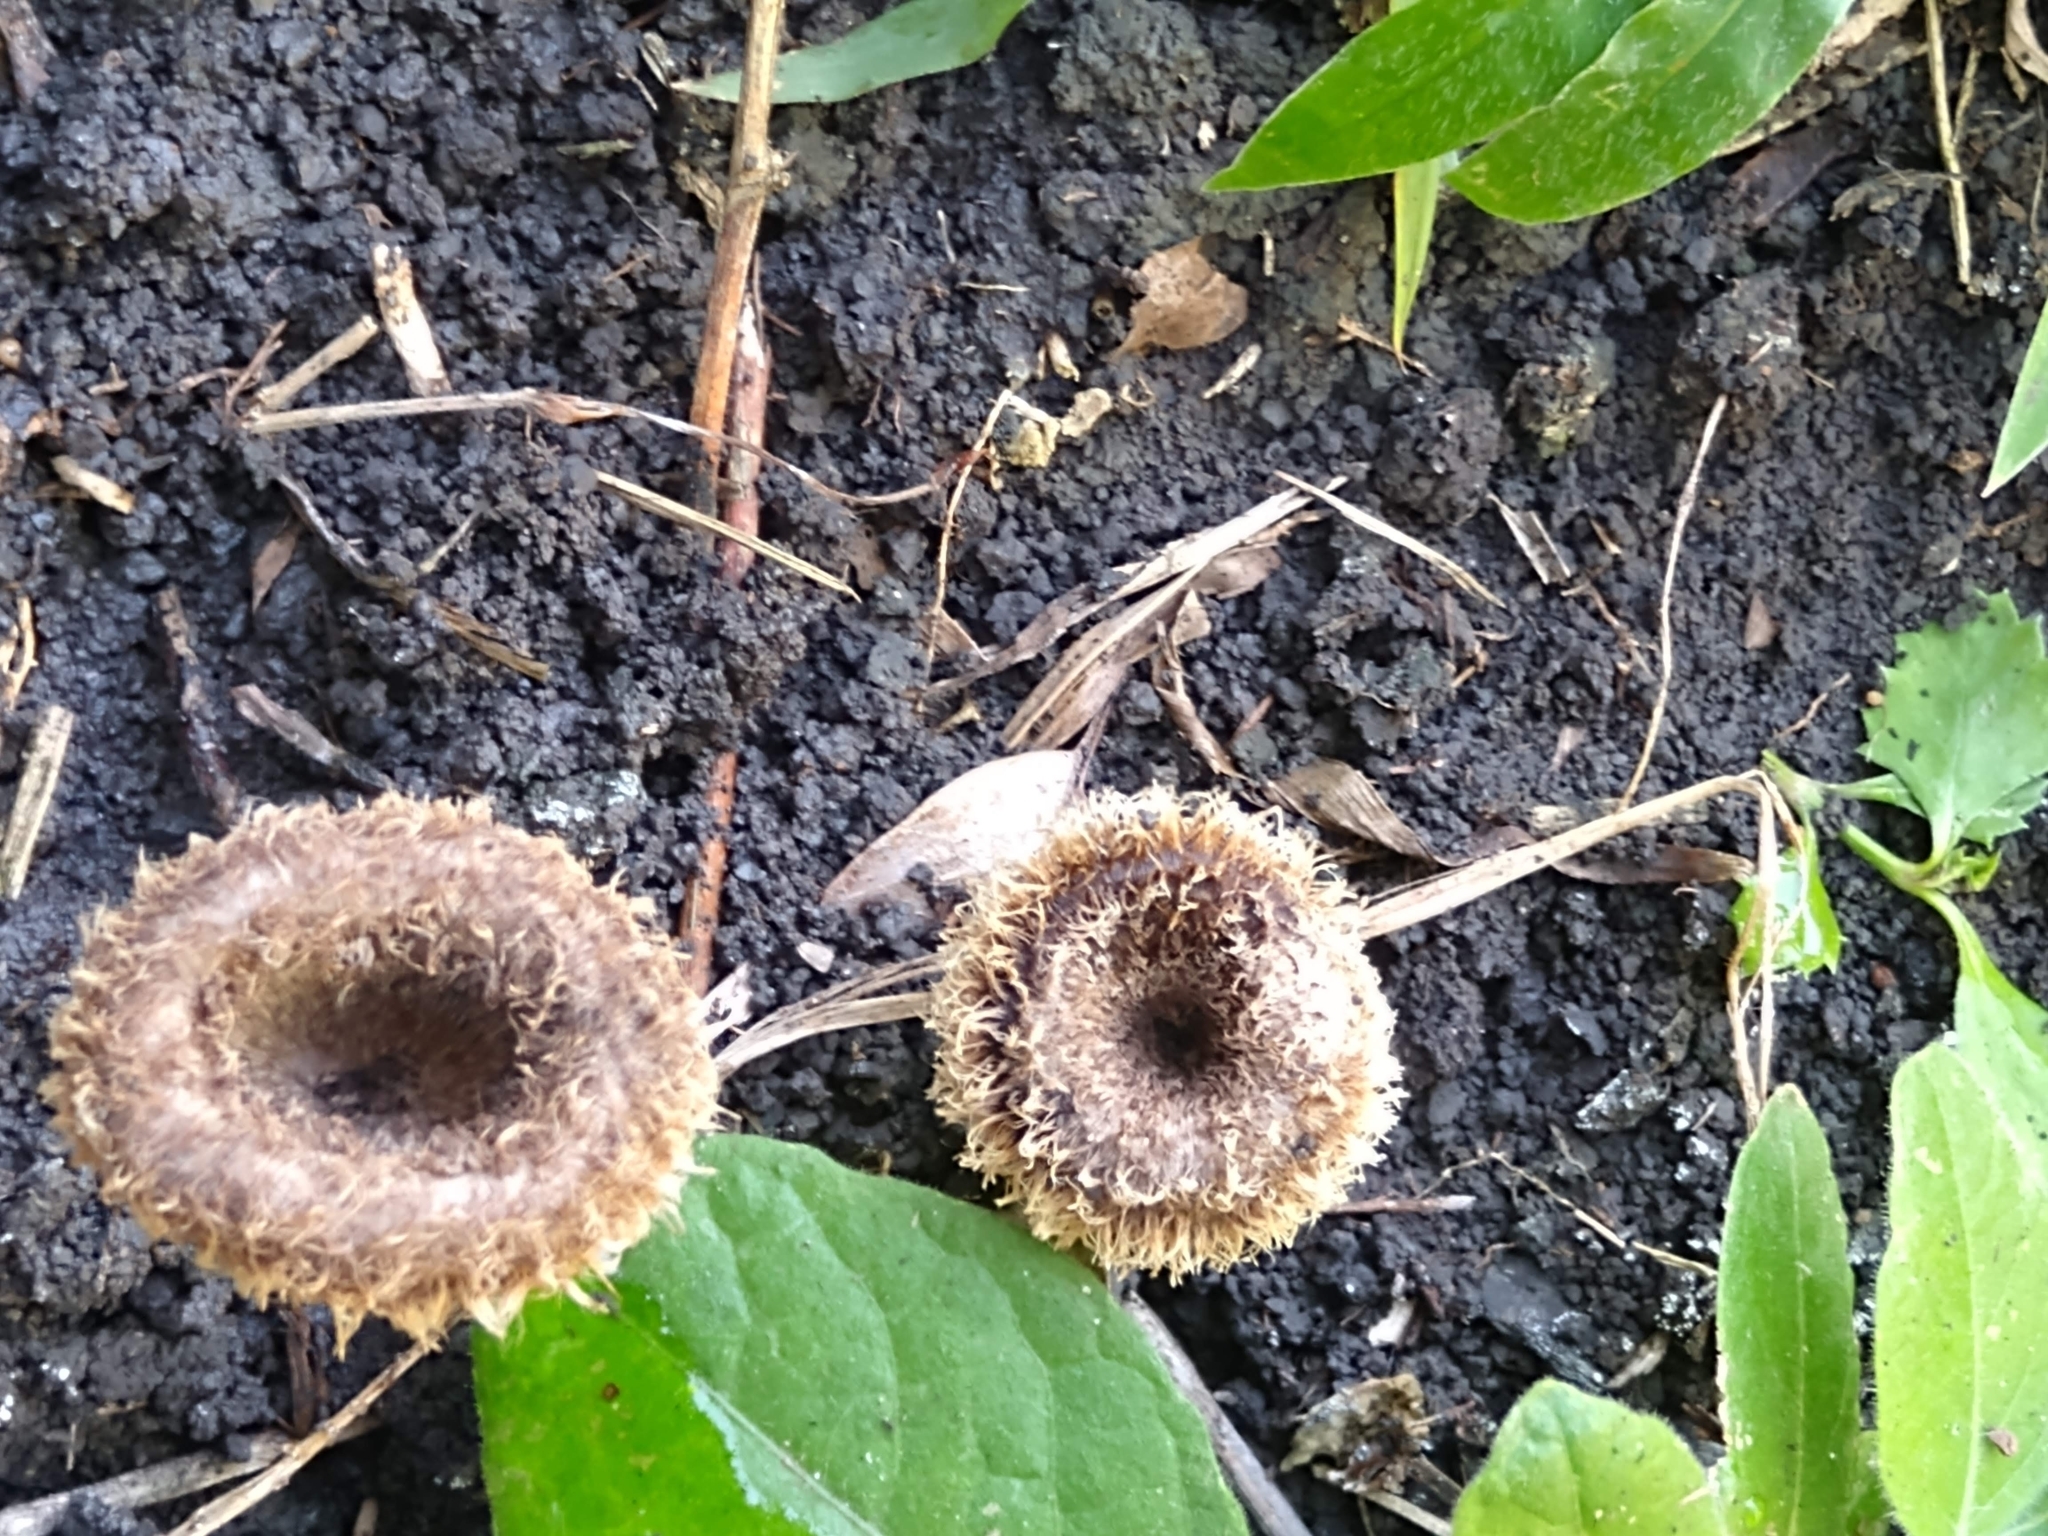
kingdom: Fungi
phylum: Basidiomycota
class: Agaricomycetes
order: Polyporales
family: Polyporaceae
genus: Lentinus
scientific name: Lentinus crinitus
